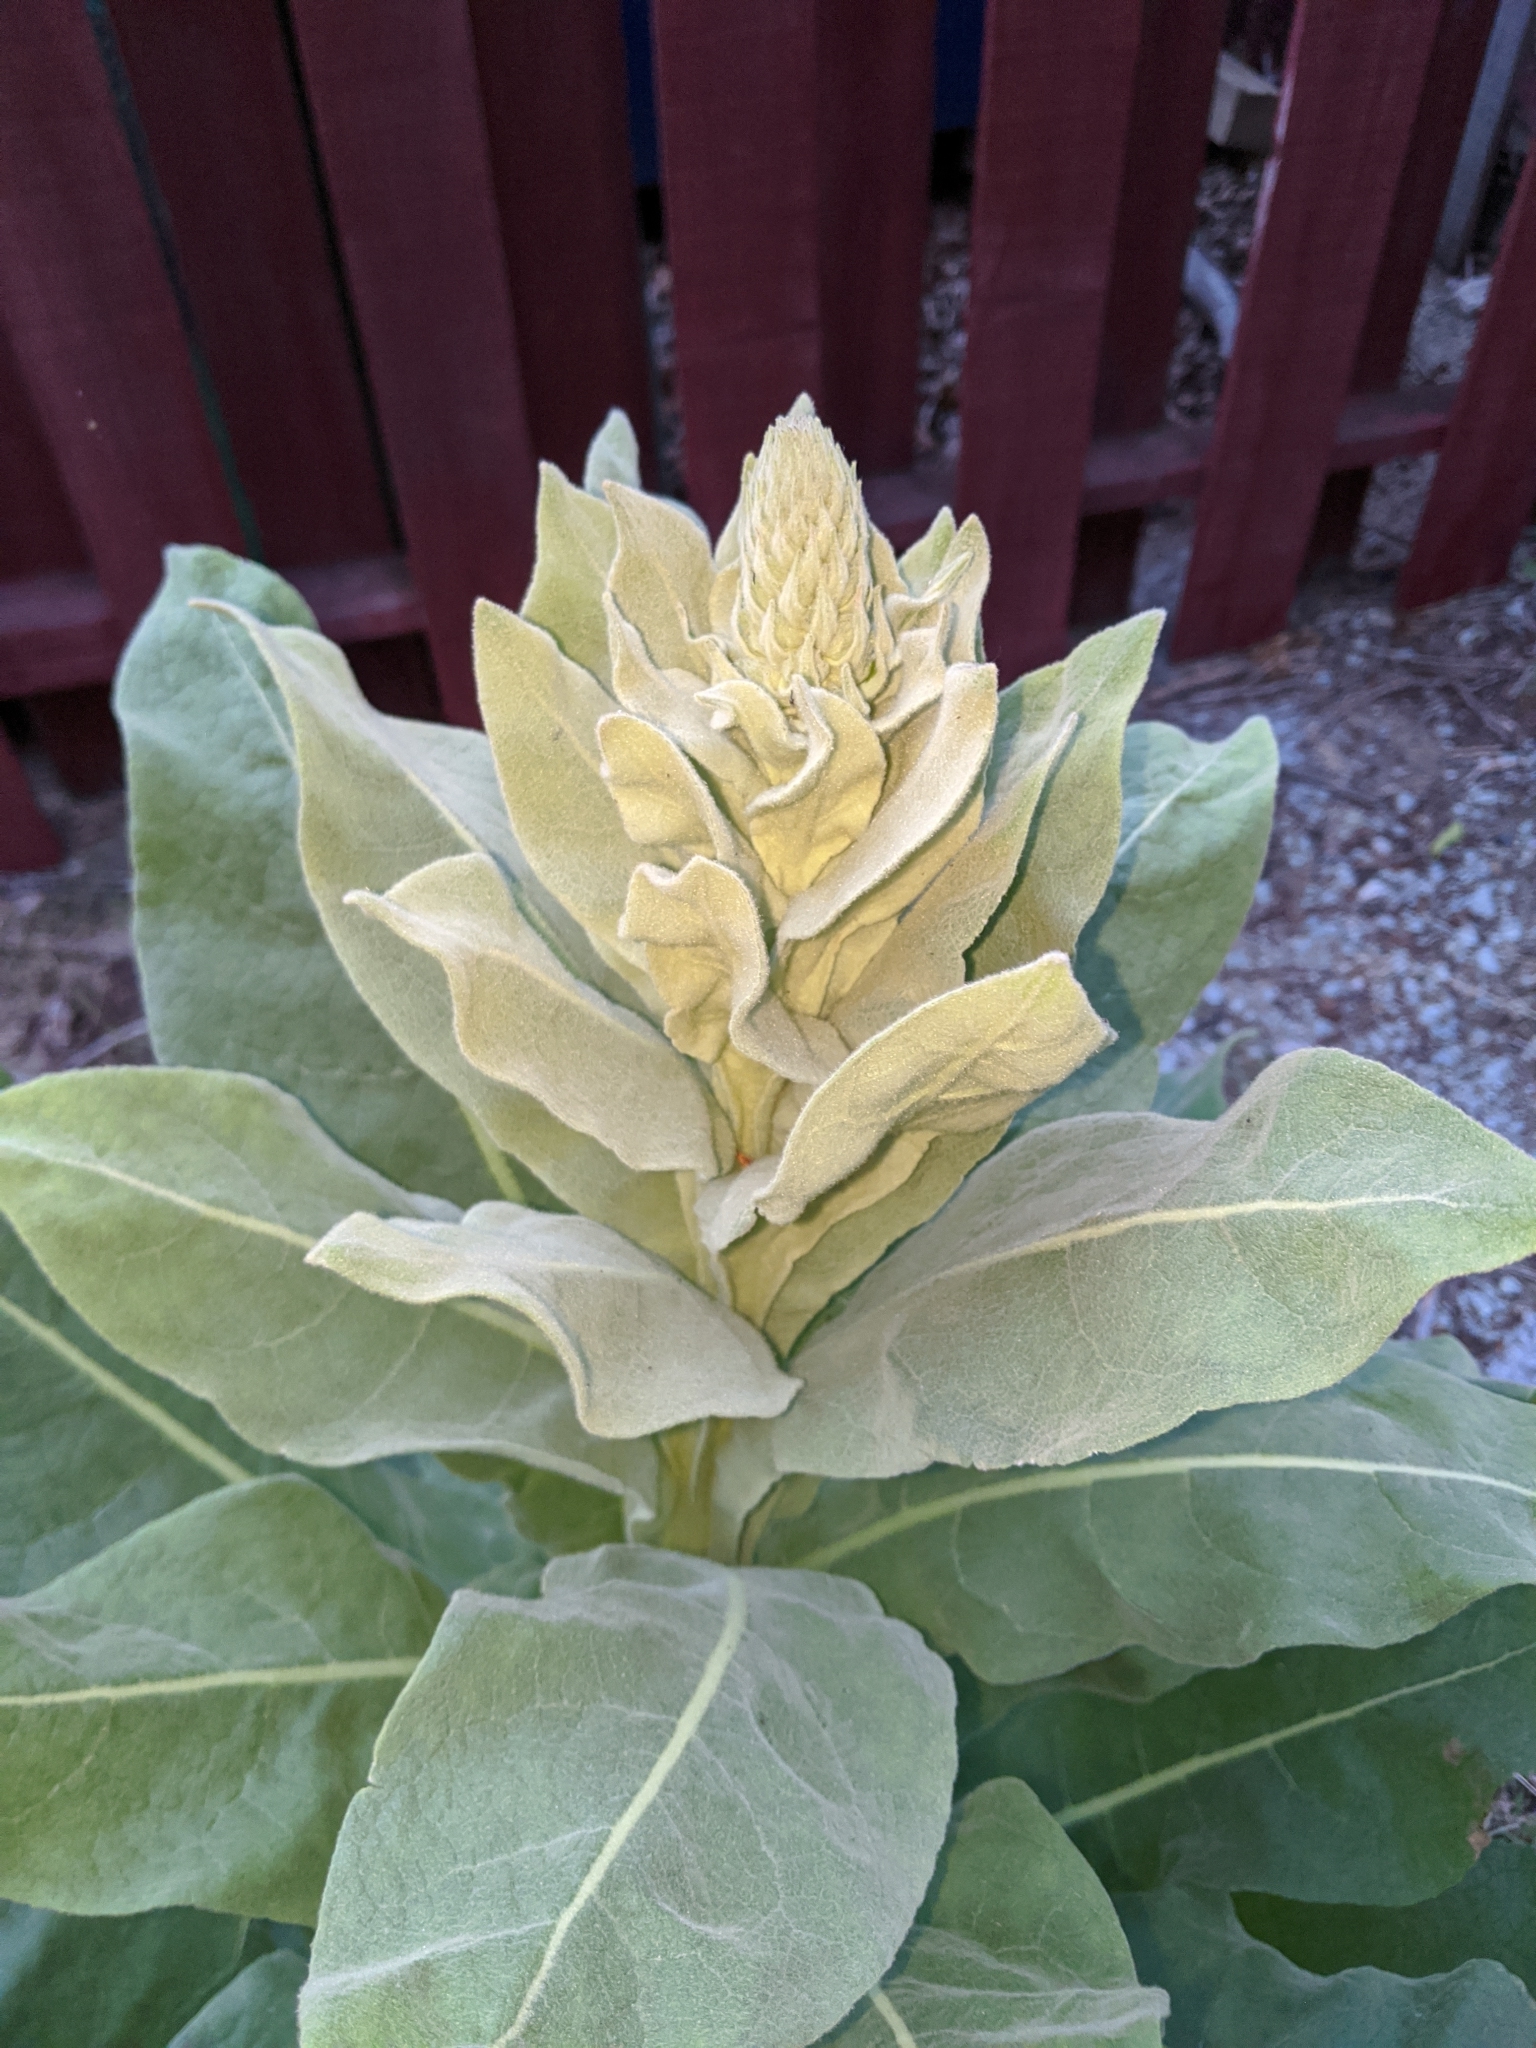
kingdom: Plantae
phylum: Tracheophyta
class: Magnoliopsida
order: Lamiales
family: Scrophulariaceae
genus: Verbascum
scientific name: Verbascum thapsus
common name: Common mullein
